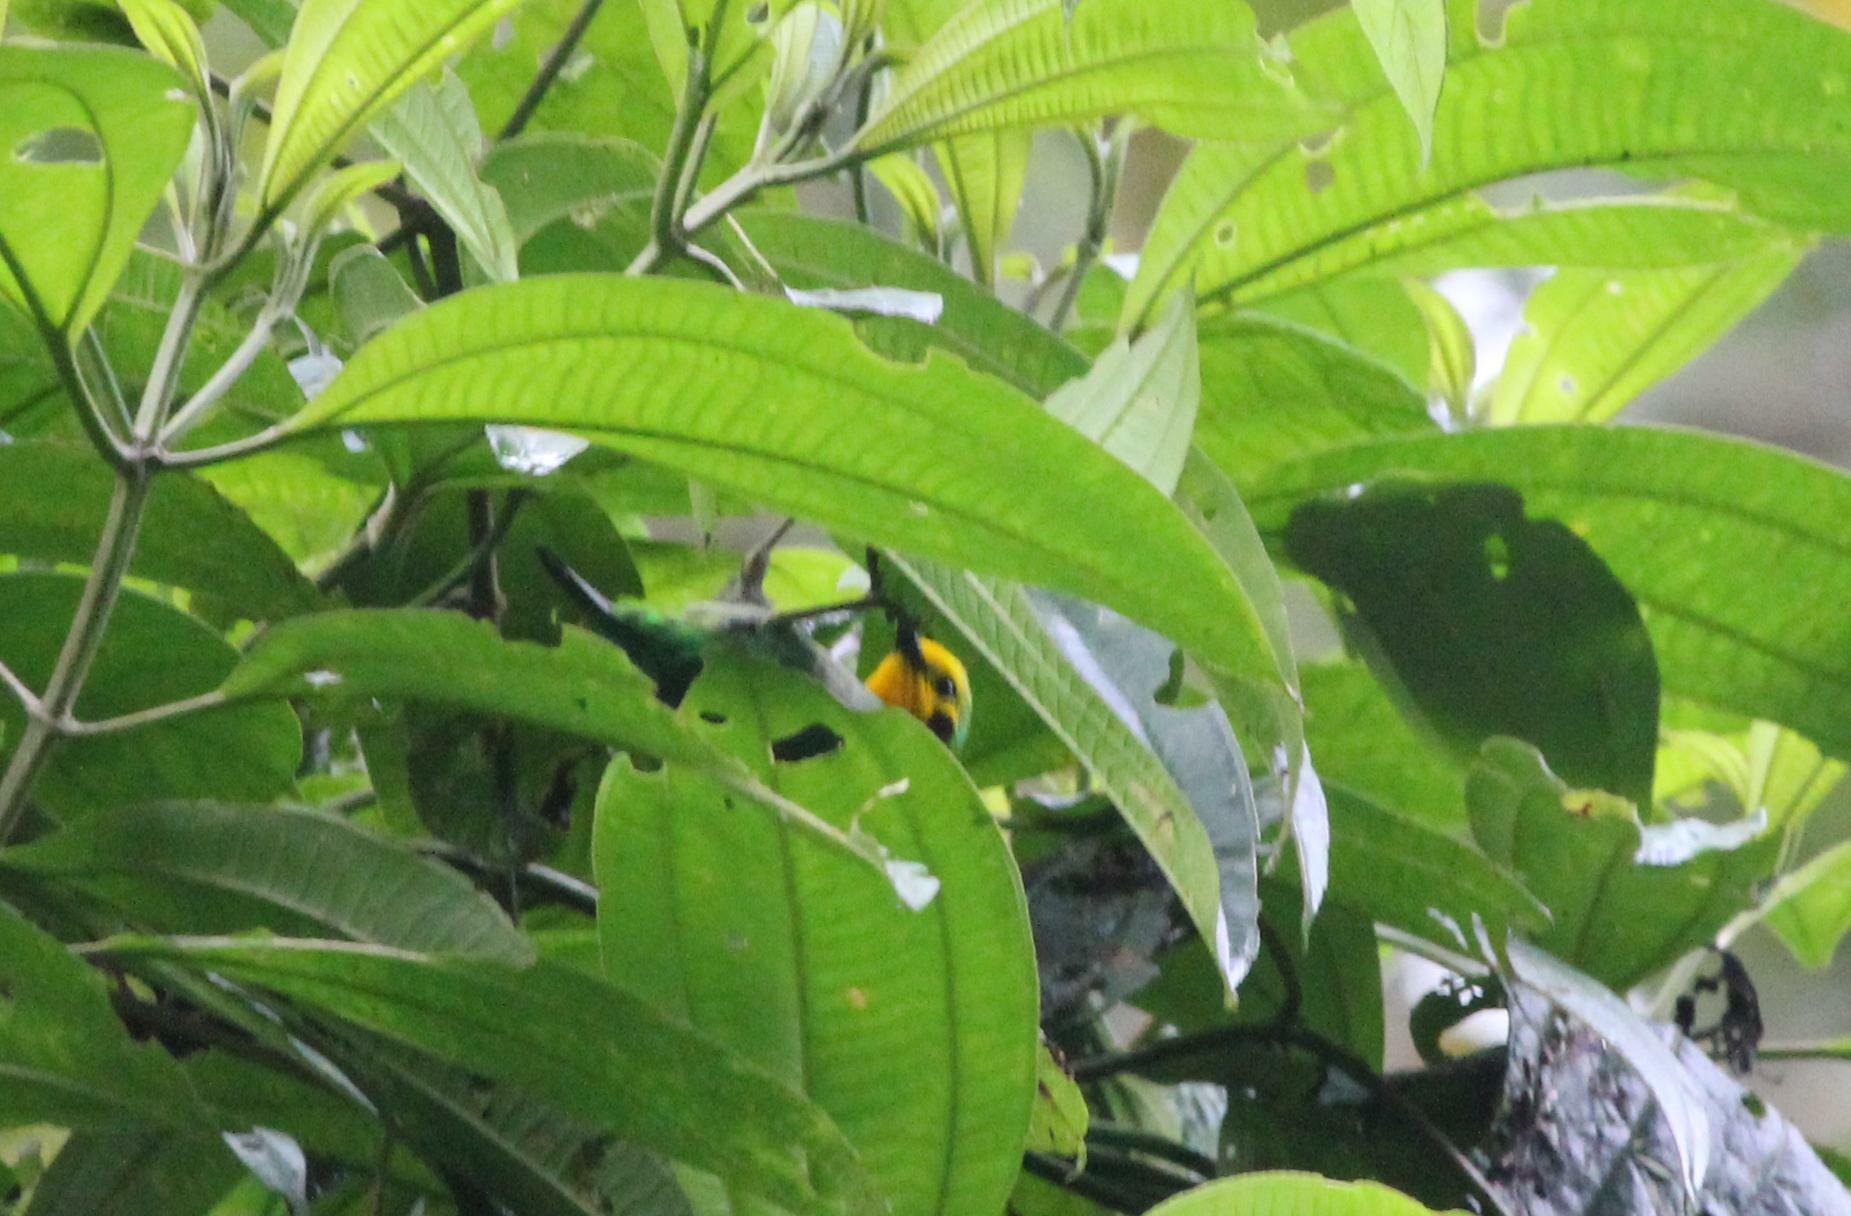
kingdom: Animalia
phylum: Chordata
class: Aves
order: Passeriformes
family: Thraupidae
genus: Chlorochrysa
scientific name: Chlorochrysa nitidissima
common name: Multicolored tanager
